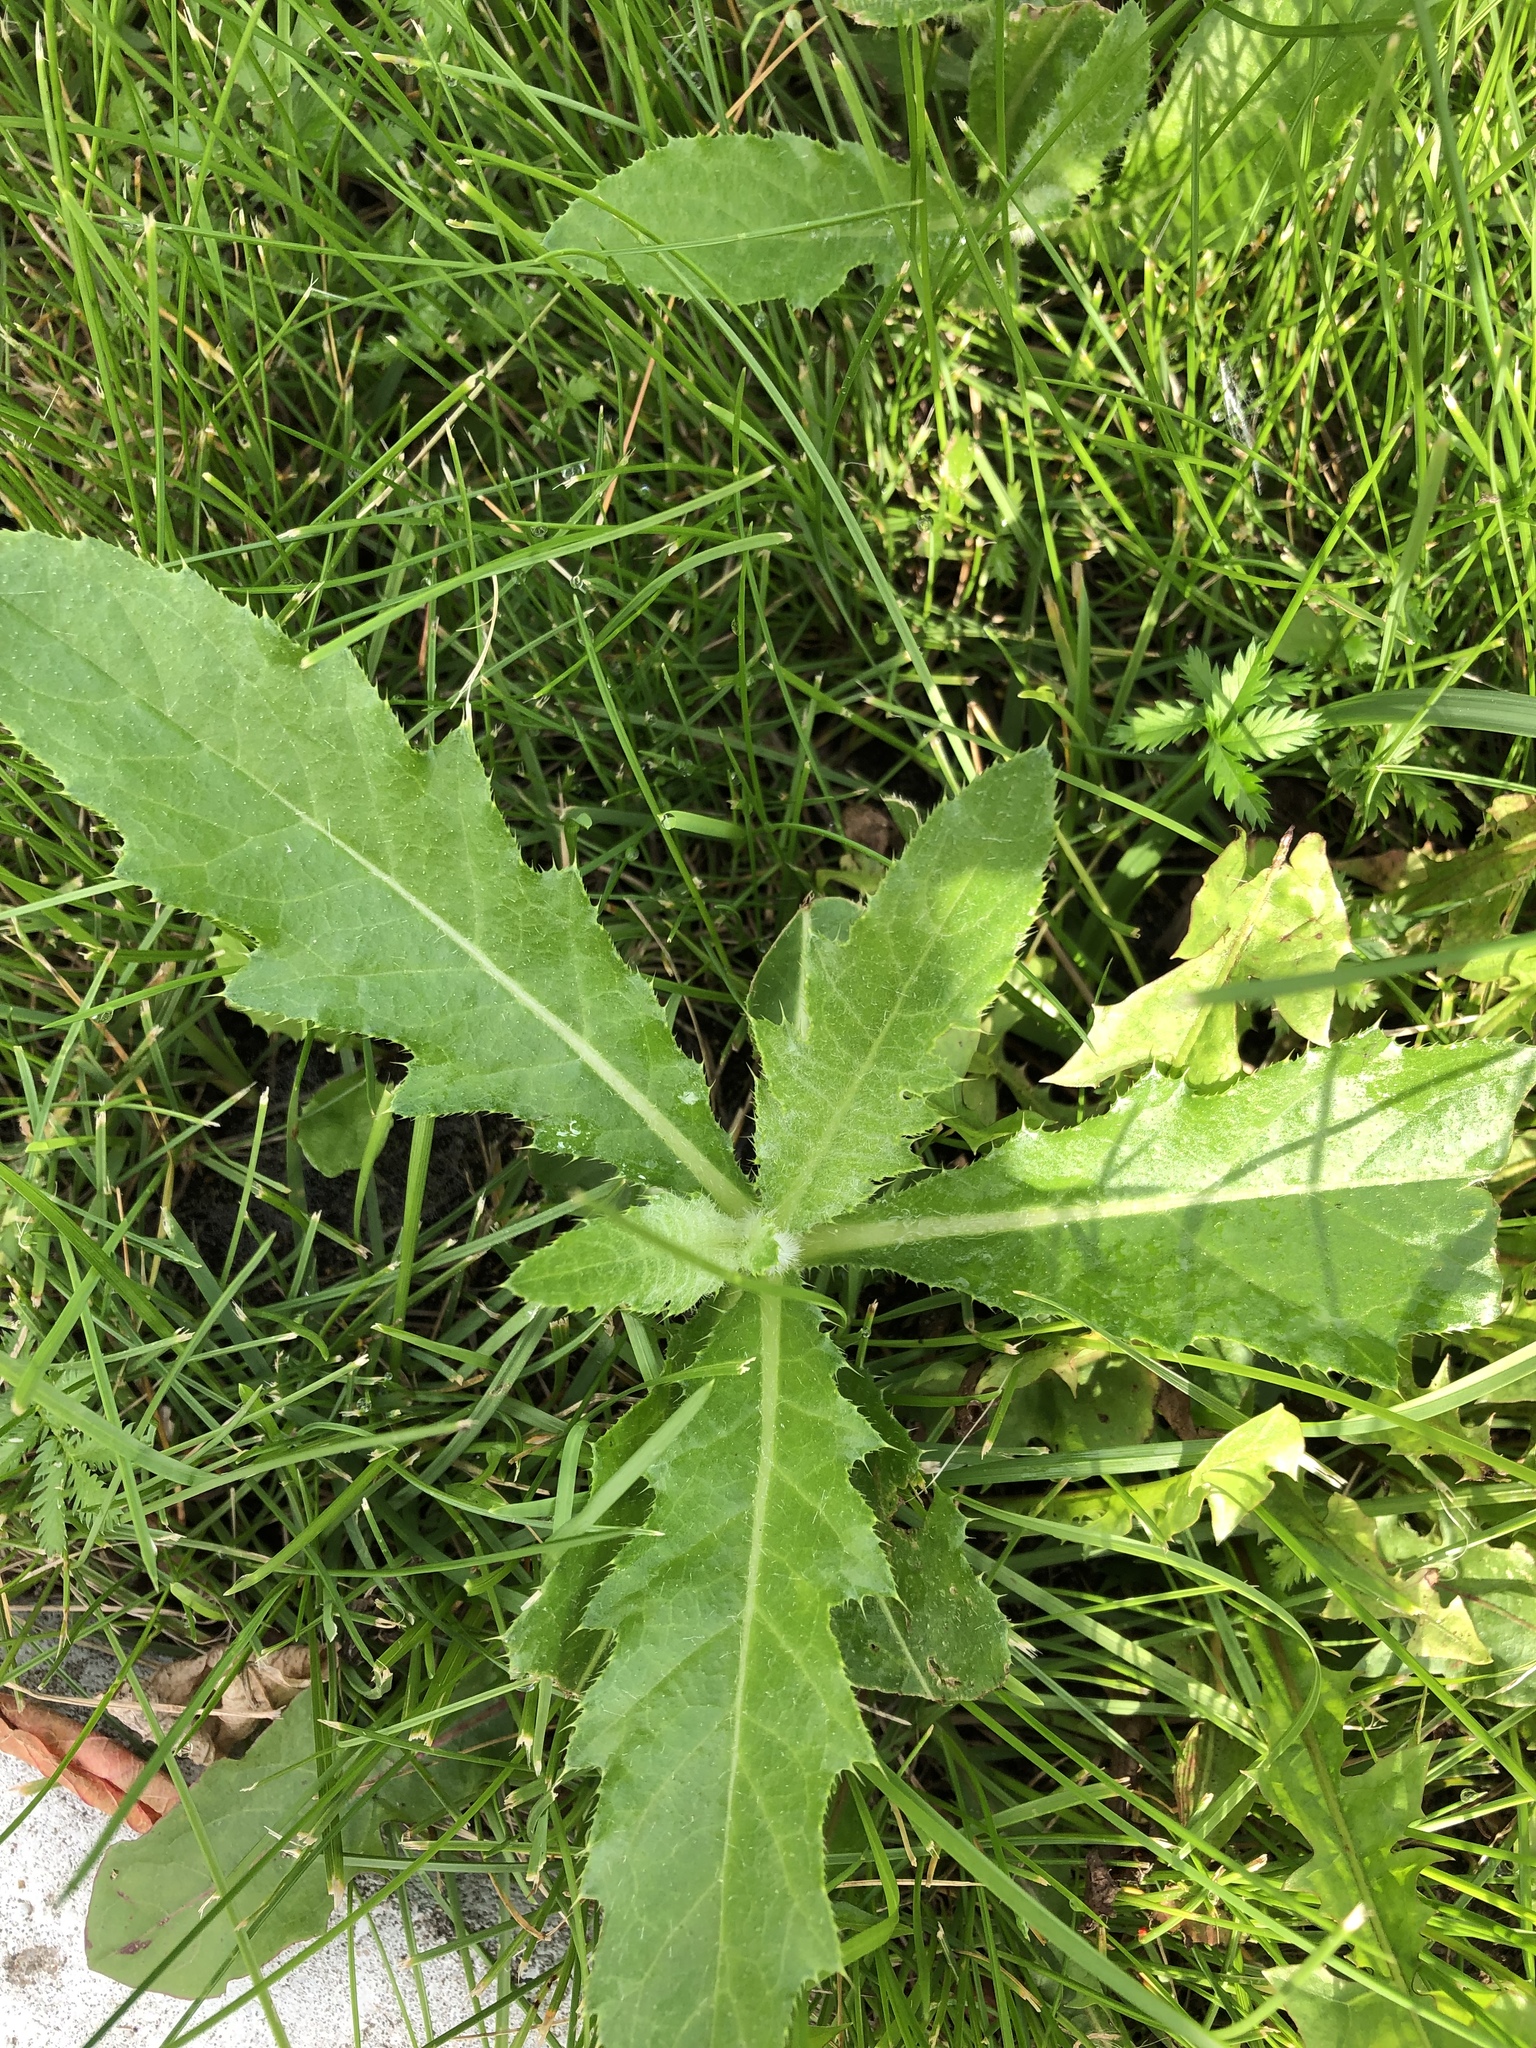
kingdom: Plantae
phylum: Tracheophyta
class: Magnoliopsida
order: Asterales
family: Asteraceae
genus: Cirsium
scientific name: Cirsium arvense
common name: Creeping thistle
